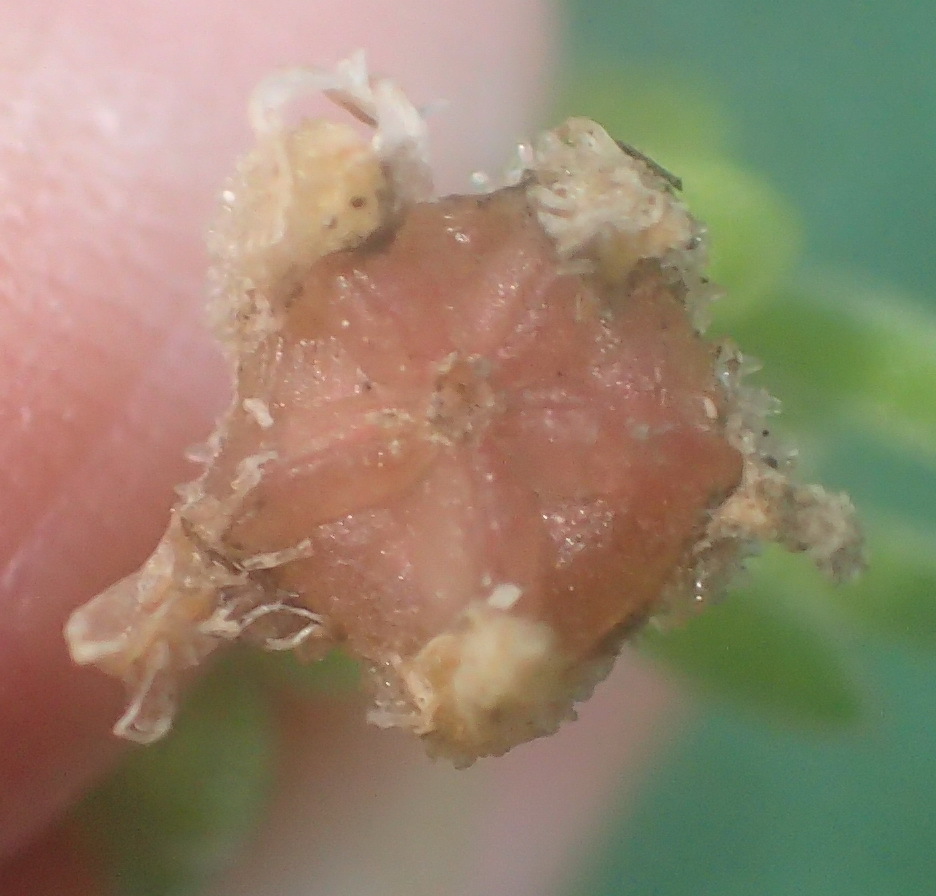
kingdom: Plantae
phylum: Tracheophyta
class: Magnoliopsida
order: Caryophyllales
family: Aizoaceae
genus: Drosanthemum
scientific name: Drosanthemum candens
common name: Rodondo-creeper
